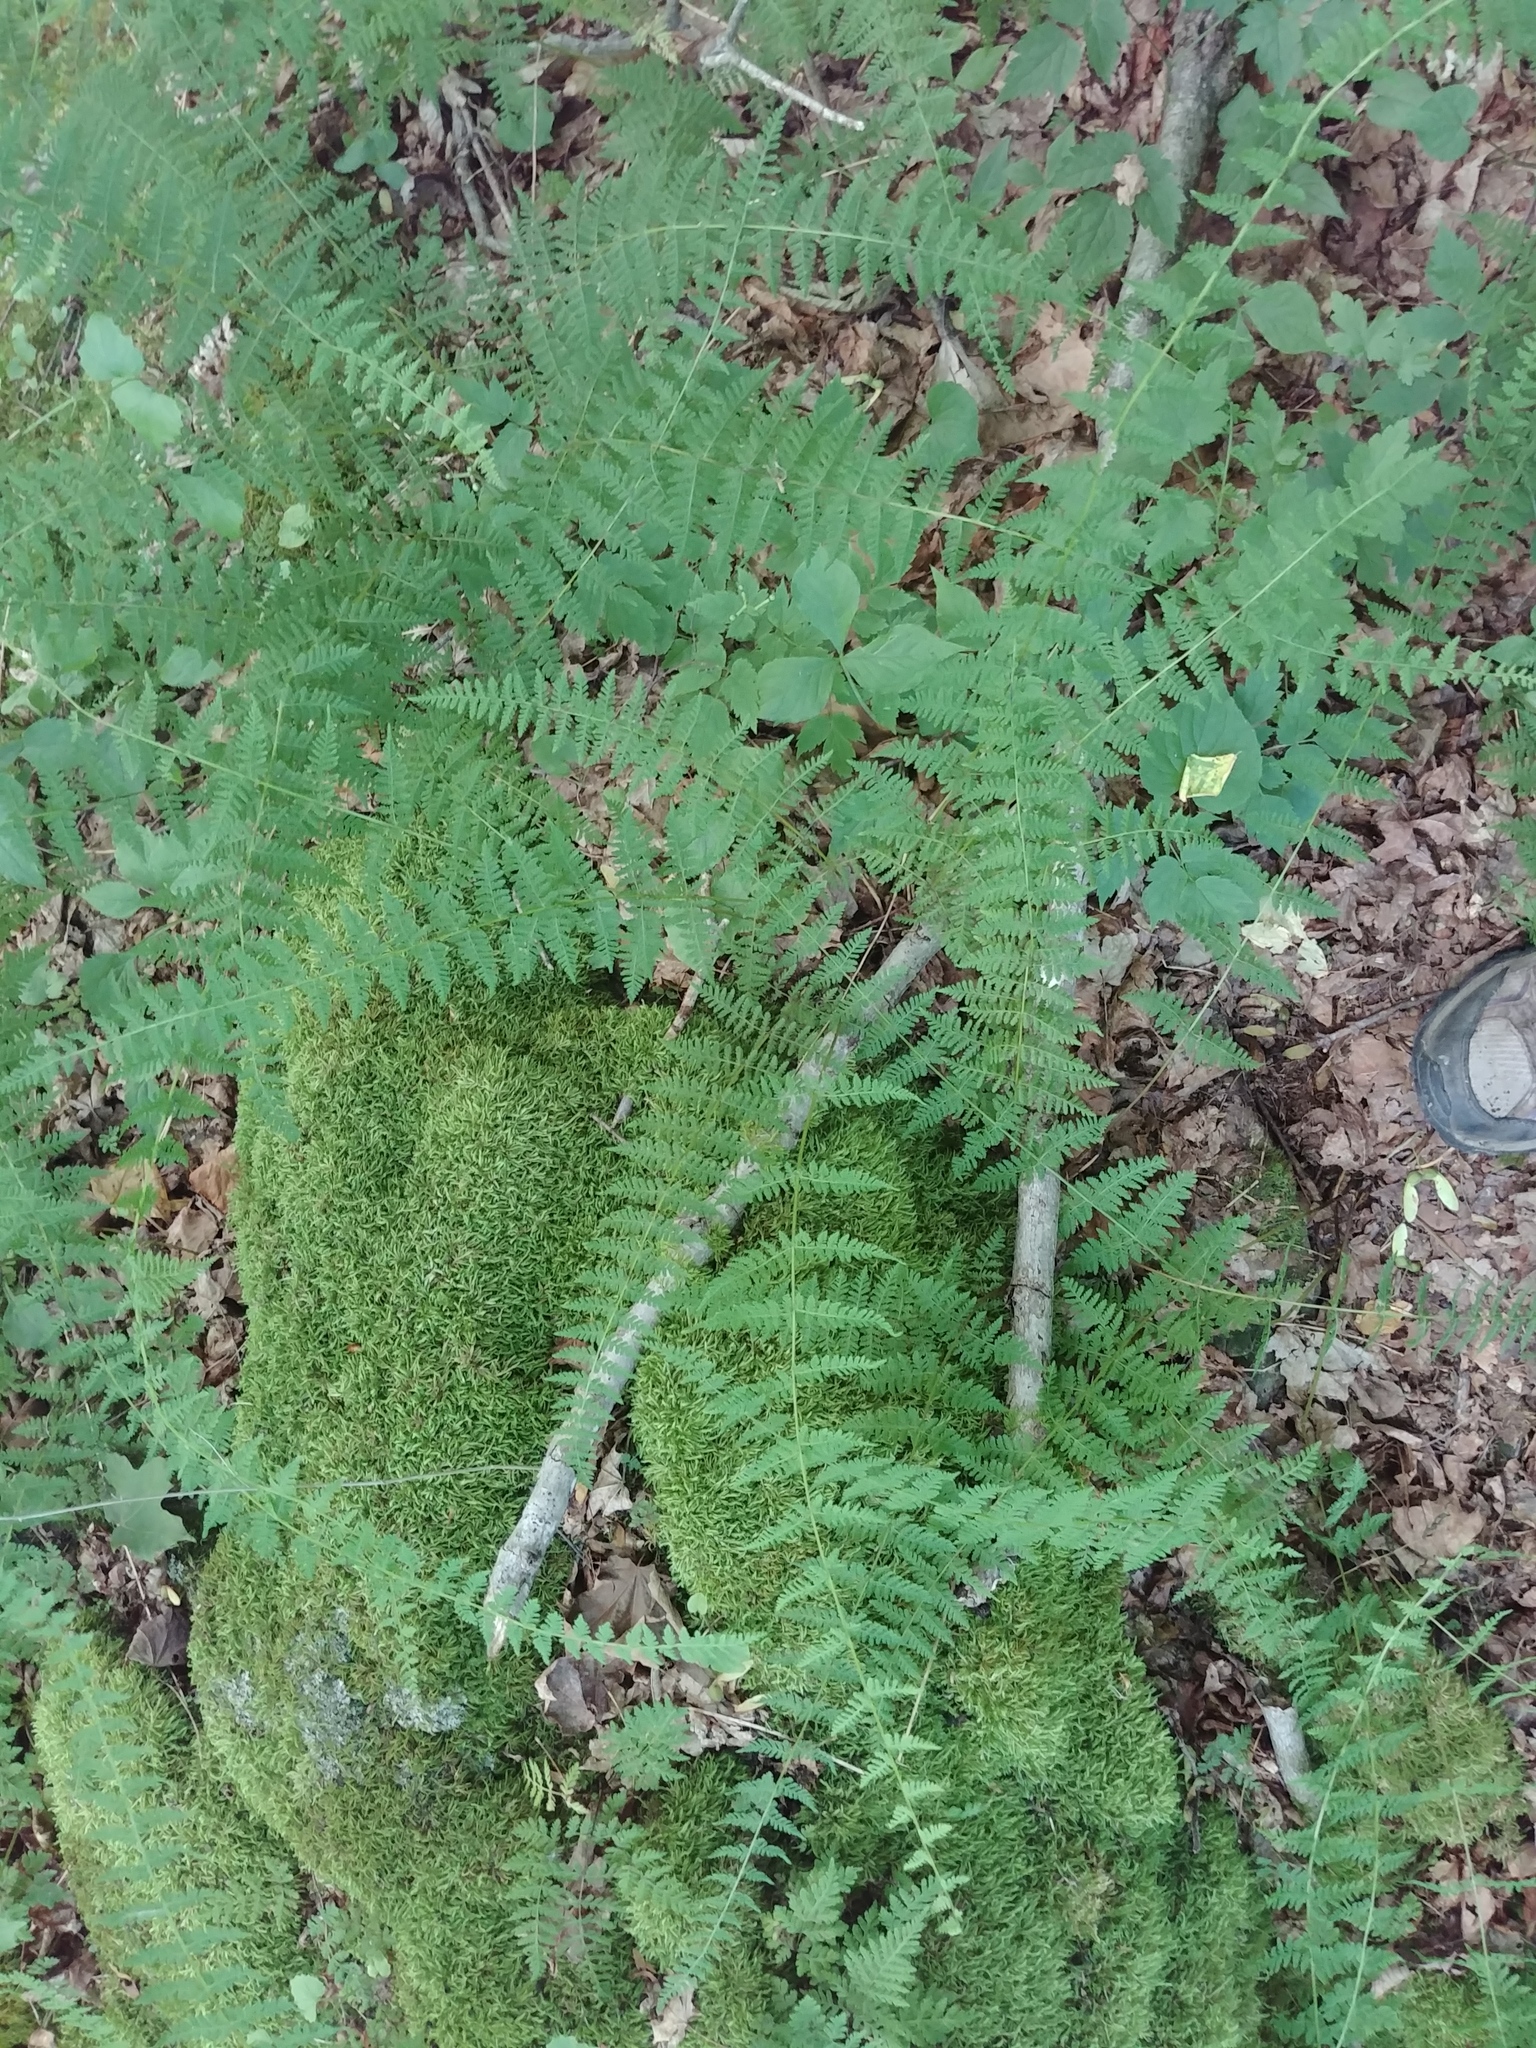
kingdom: Plantae
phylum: Tracheophyta
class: Polypodiopsida
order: Polypodiales
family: Cystopteridaceae
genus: Cystopteris
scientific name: Cystopteris bulbifera
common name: Bulblet bladder fern
